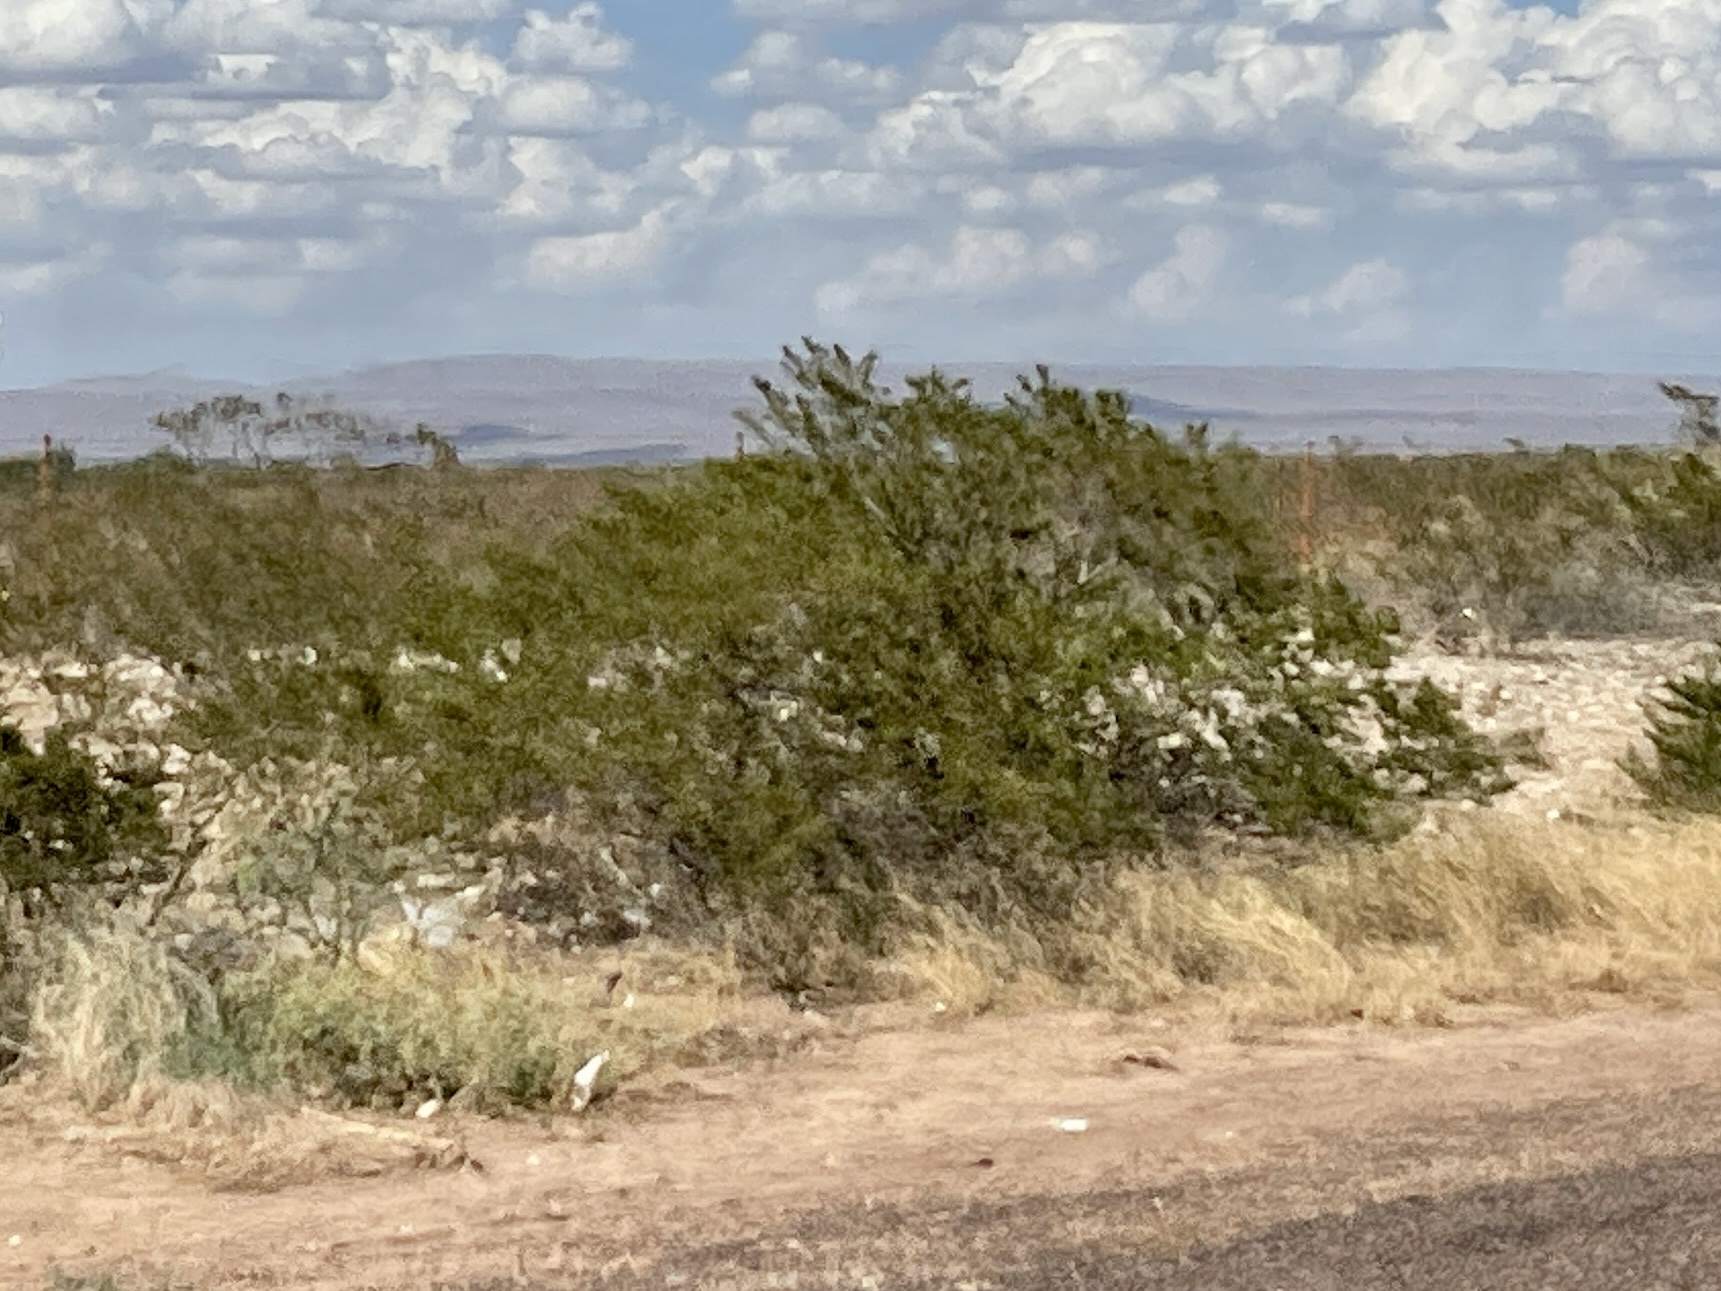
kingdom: Plantae
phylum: Tracheophyta
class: Magnoliopsida
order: Zygophyllales
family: Zygophyllaceae
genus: Larrea
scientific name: Larrea tridentata
